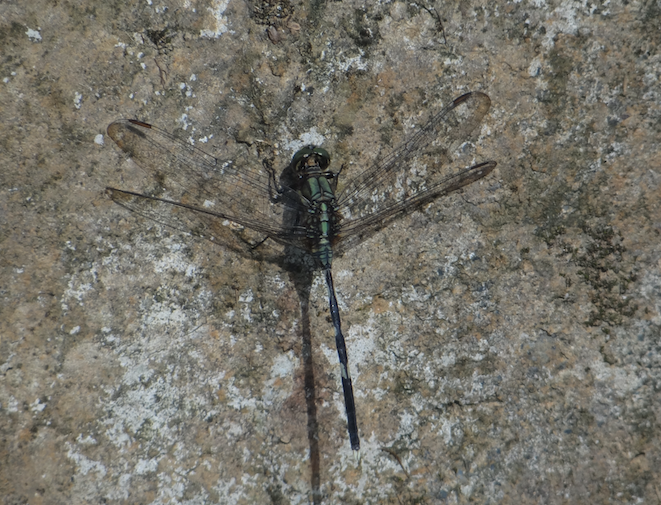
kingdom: Animalia
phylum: Arthropoda
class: Insecta
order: Odonata
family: Libellulidae
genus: Orthetrum
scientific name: Orthetrum sabina
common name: Slender skimmer
